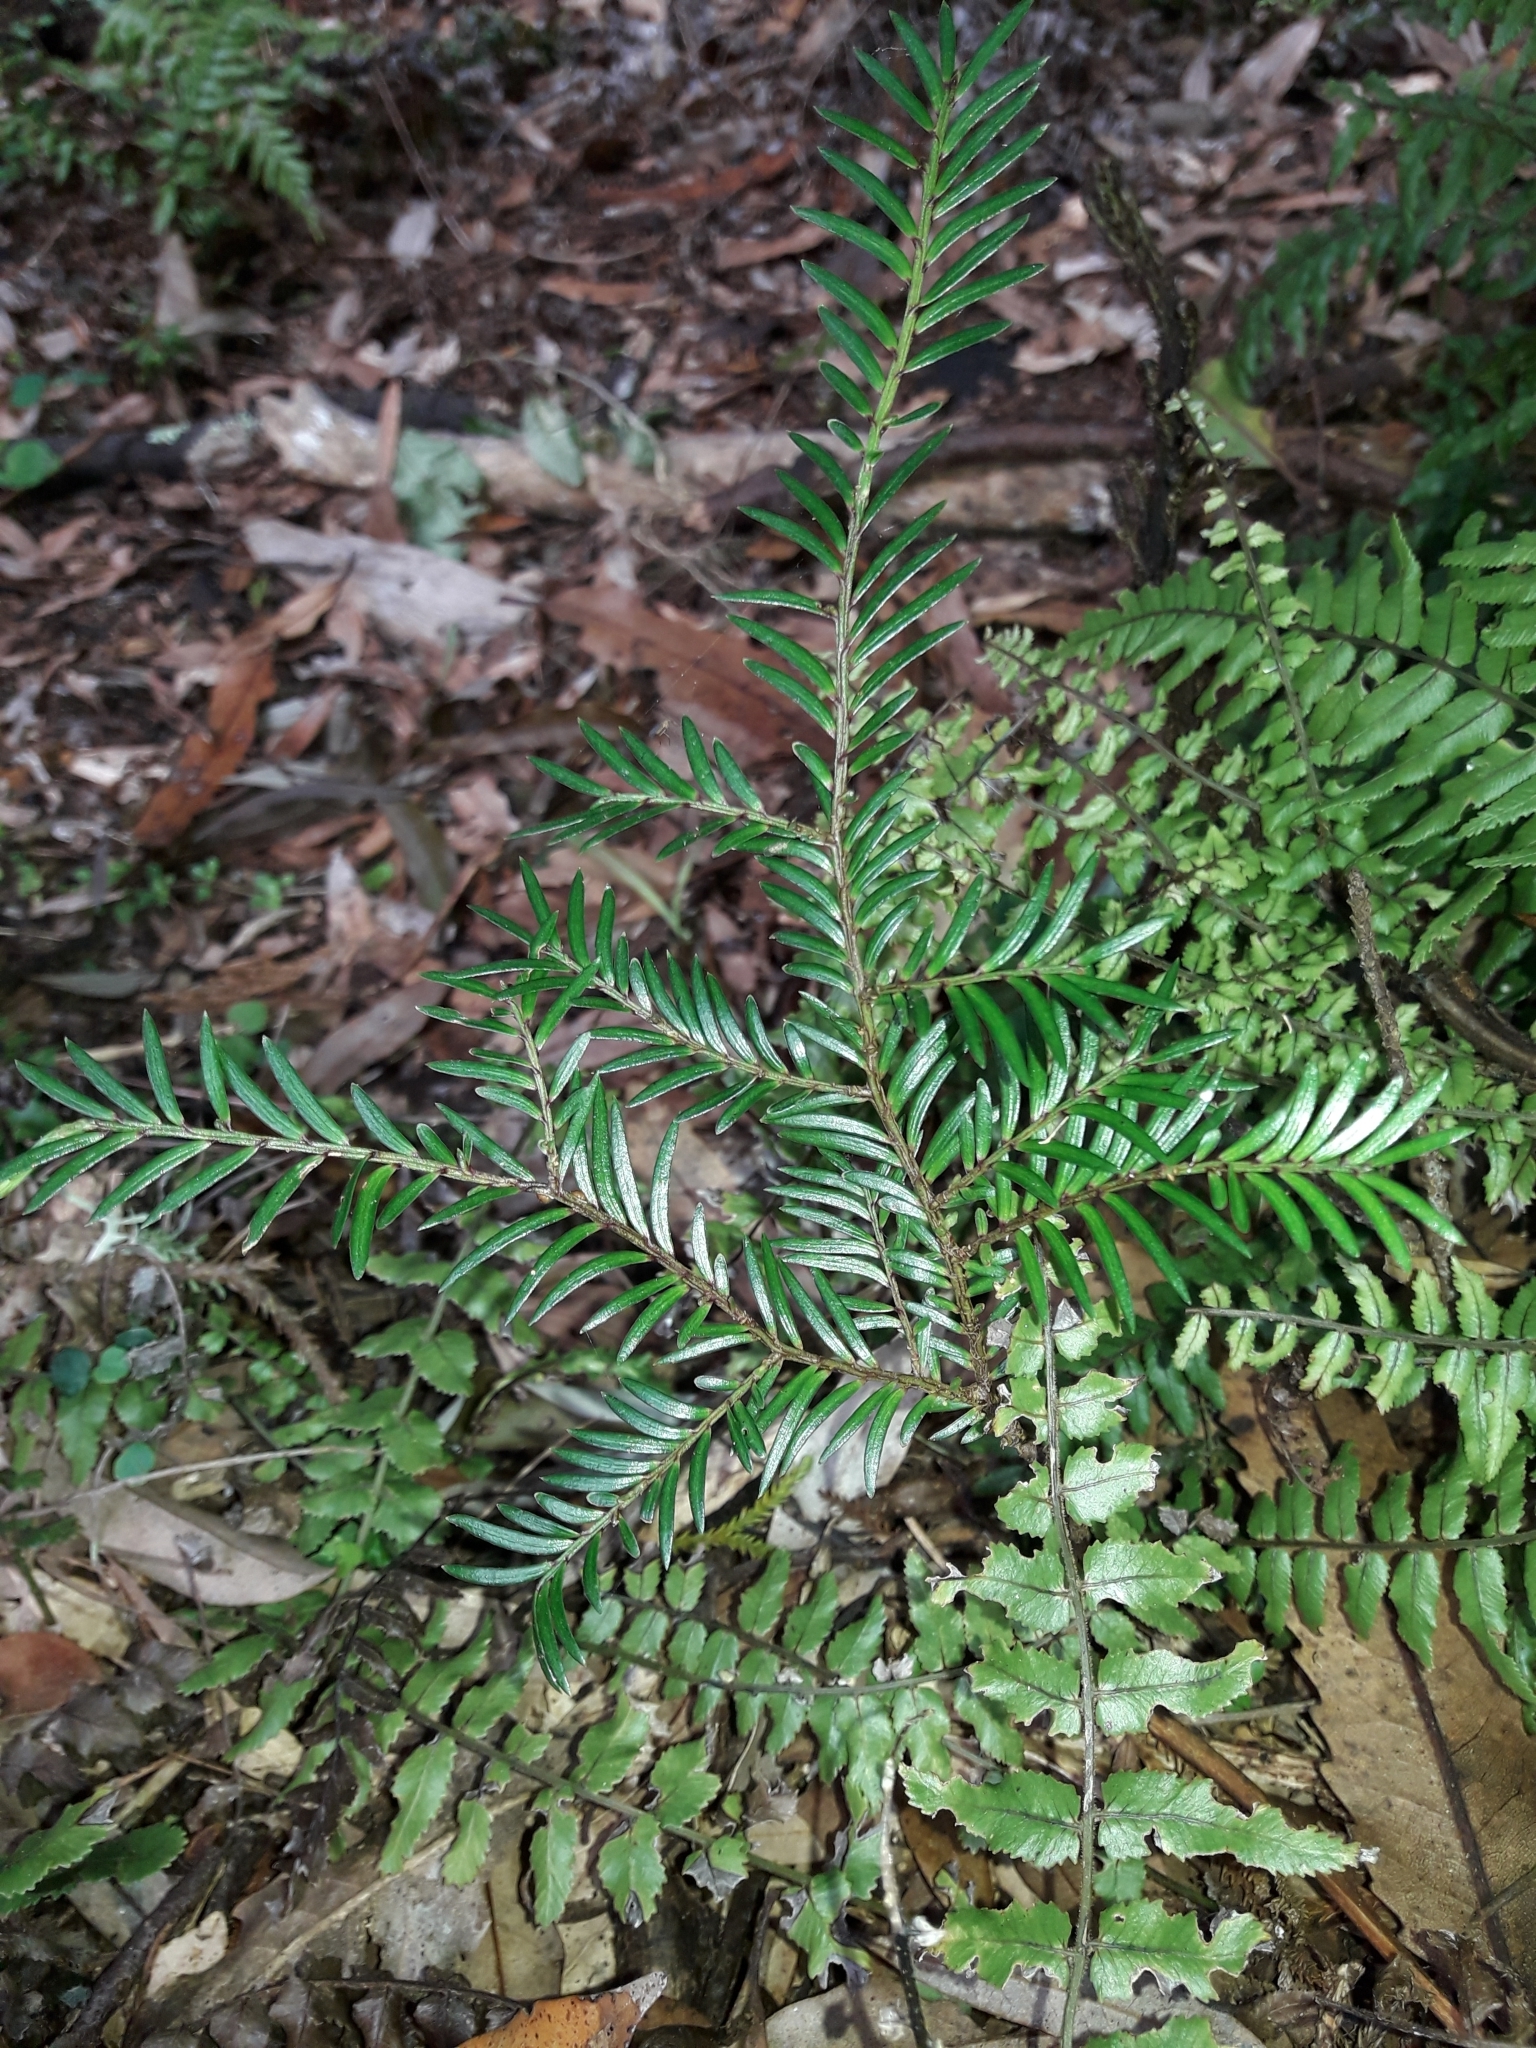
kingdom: Plantae
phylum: Tracheophyta
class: Pinopsida
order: Pinales
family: Podocarpaceae
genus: Prumnopitys
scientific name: Prumnopitys ferruginea
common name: Brown pine
